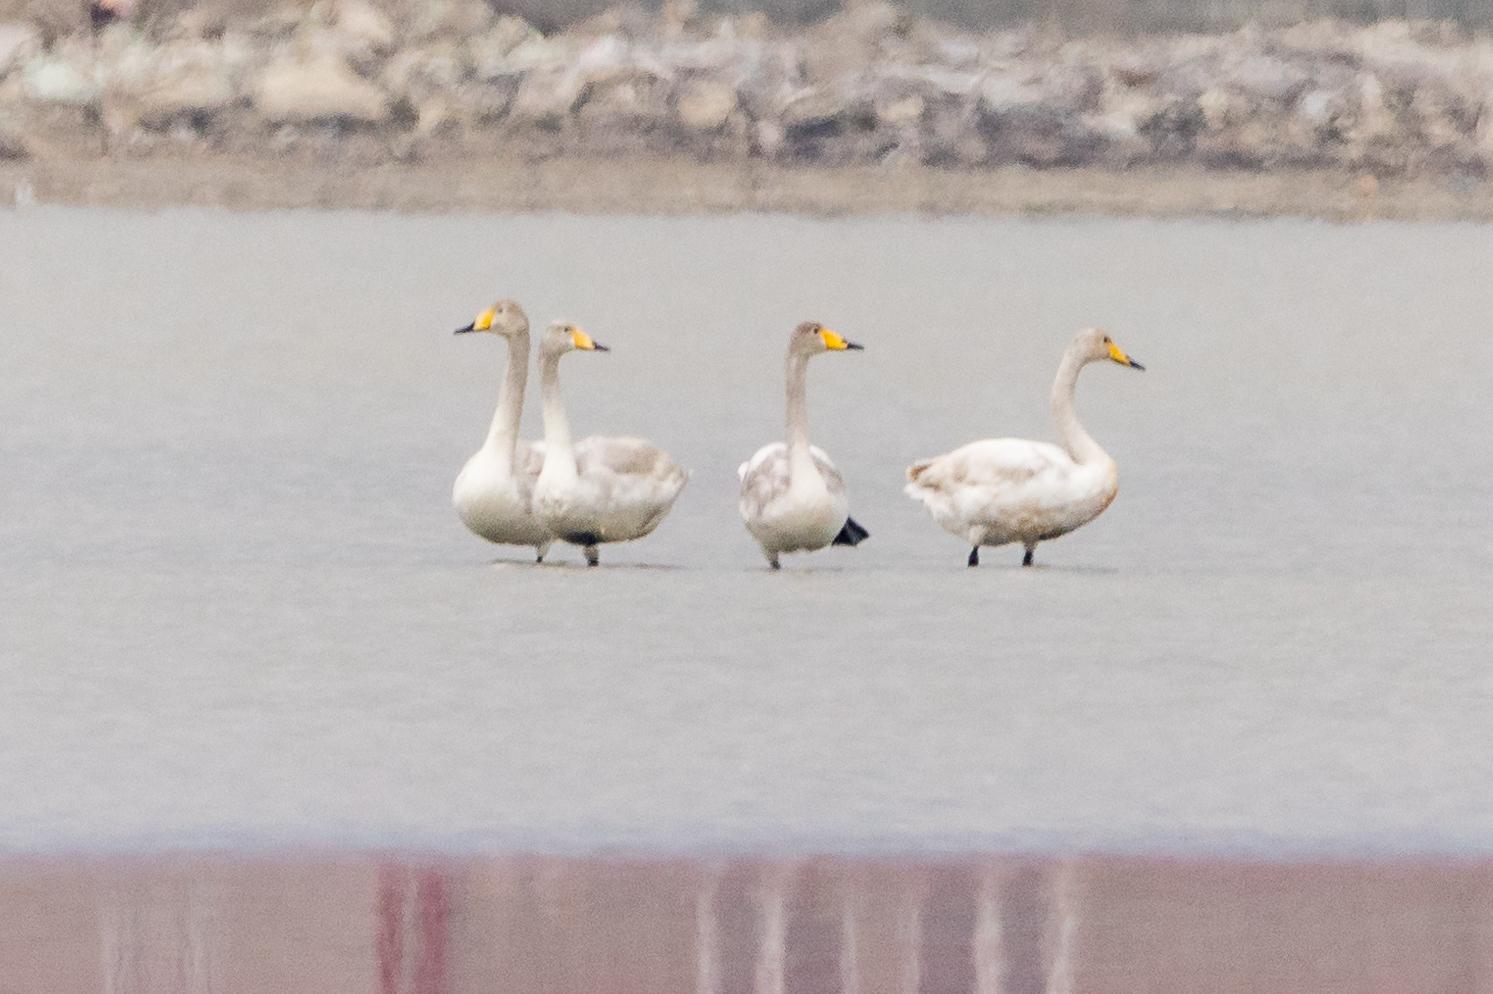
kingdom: Animalia
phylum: Chordata
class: Aves
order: Anseriformes
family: Anatidae
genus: Cygnus
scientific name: Cygnus cygnus
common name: Whooper swan
